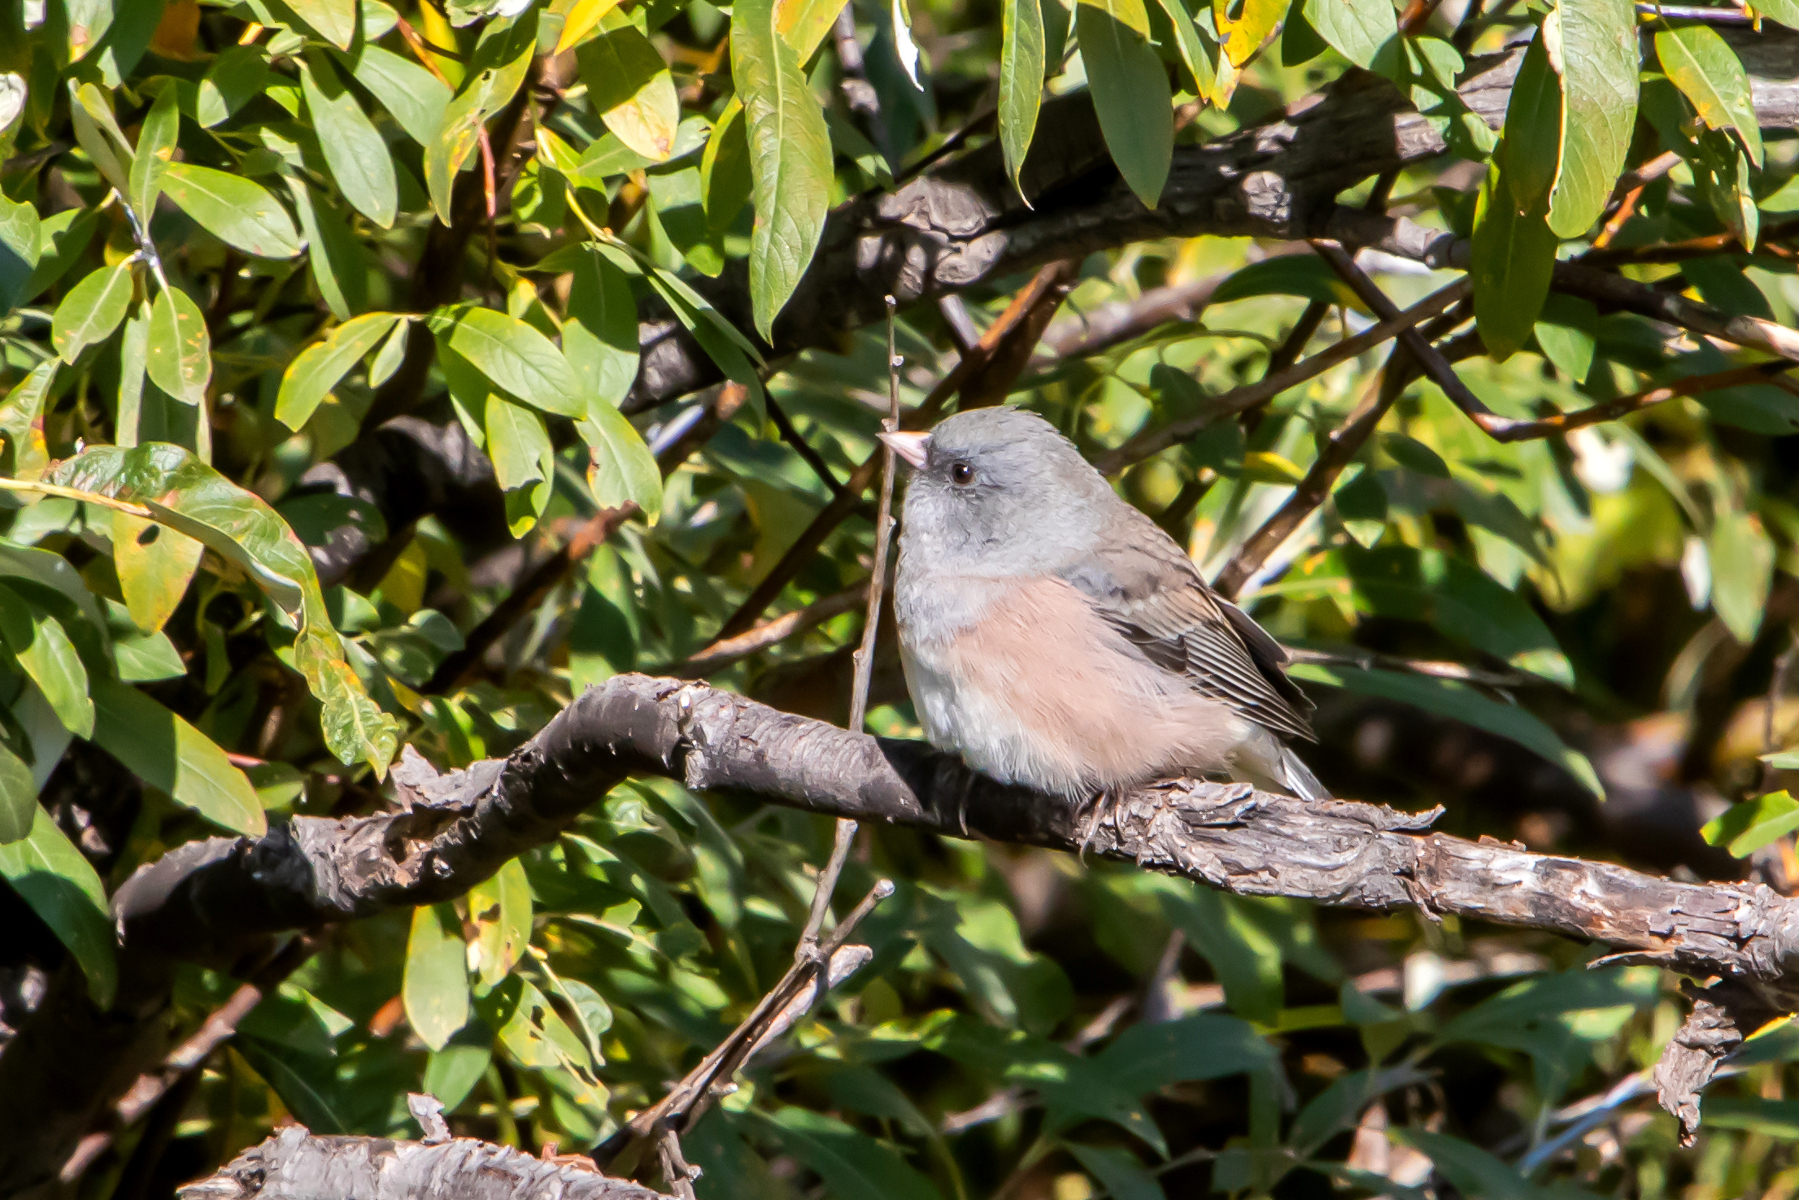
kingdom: Animalia
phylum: Chordata
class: Aves
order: Passeriformes
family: Passerellidae
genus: Junco
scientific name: Junco hyemalis
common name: Dark-eyed junco
